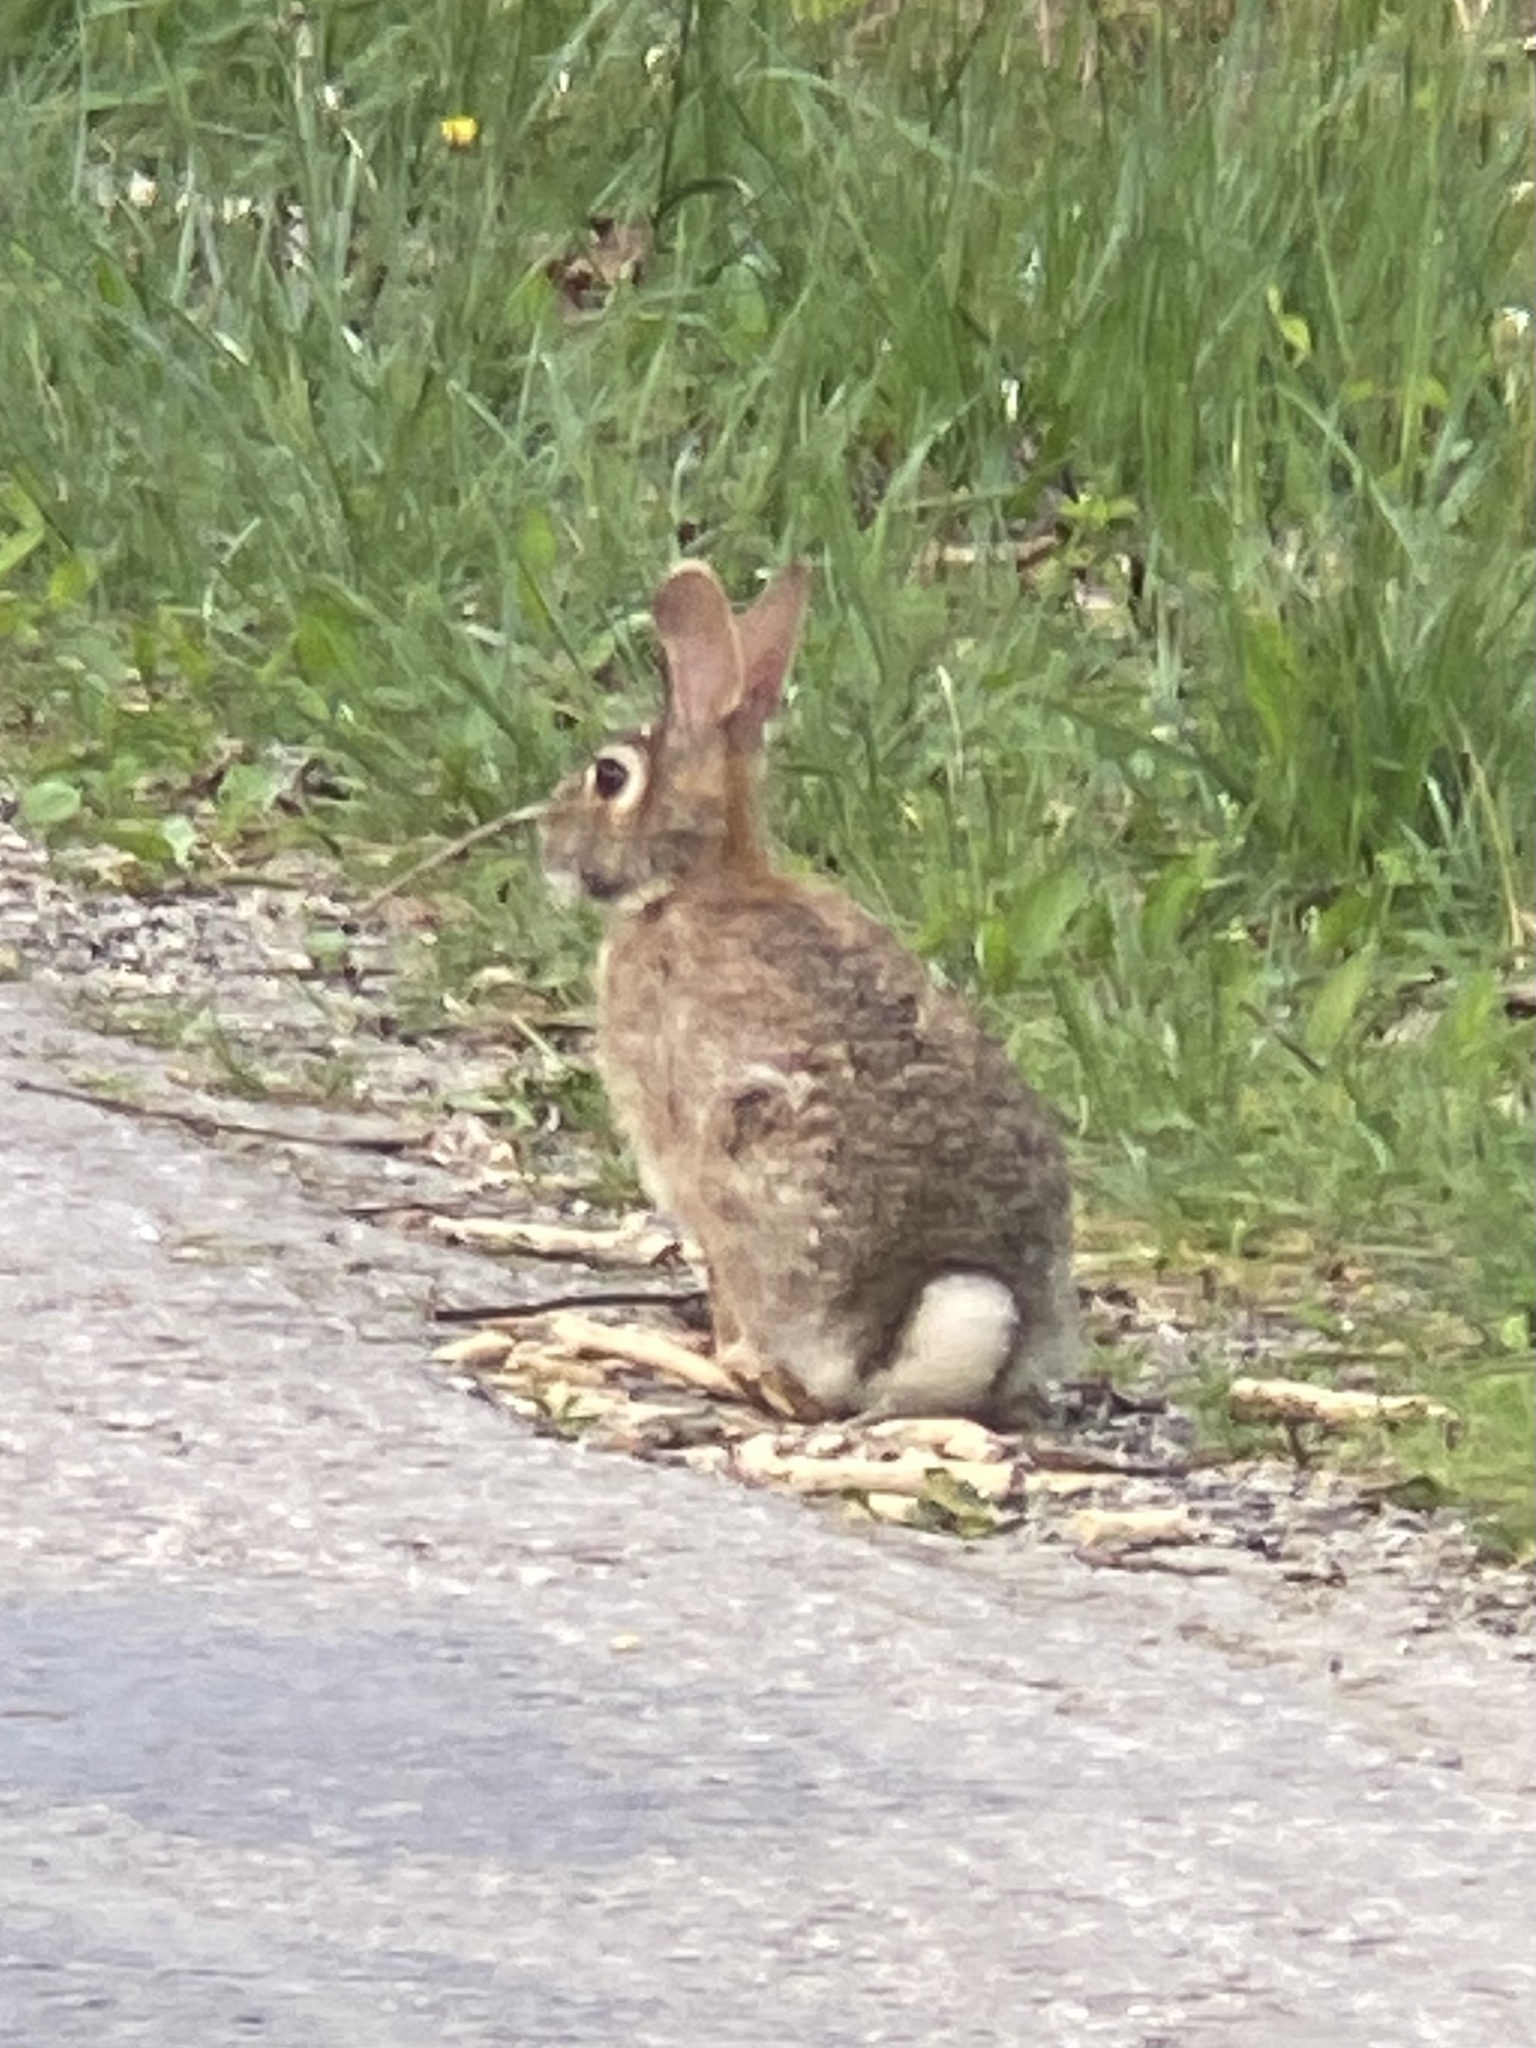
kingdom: Animalia
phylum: Chordata
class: Mammalia
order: Lagomorpha
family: Leporidae
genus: Sylvilagus
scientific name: Sylvilagus floridanus
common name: Eastern cottontail
